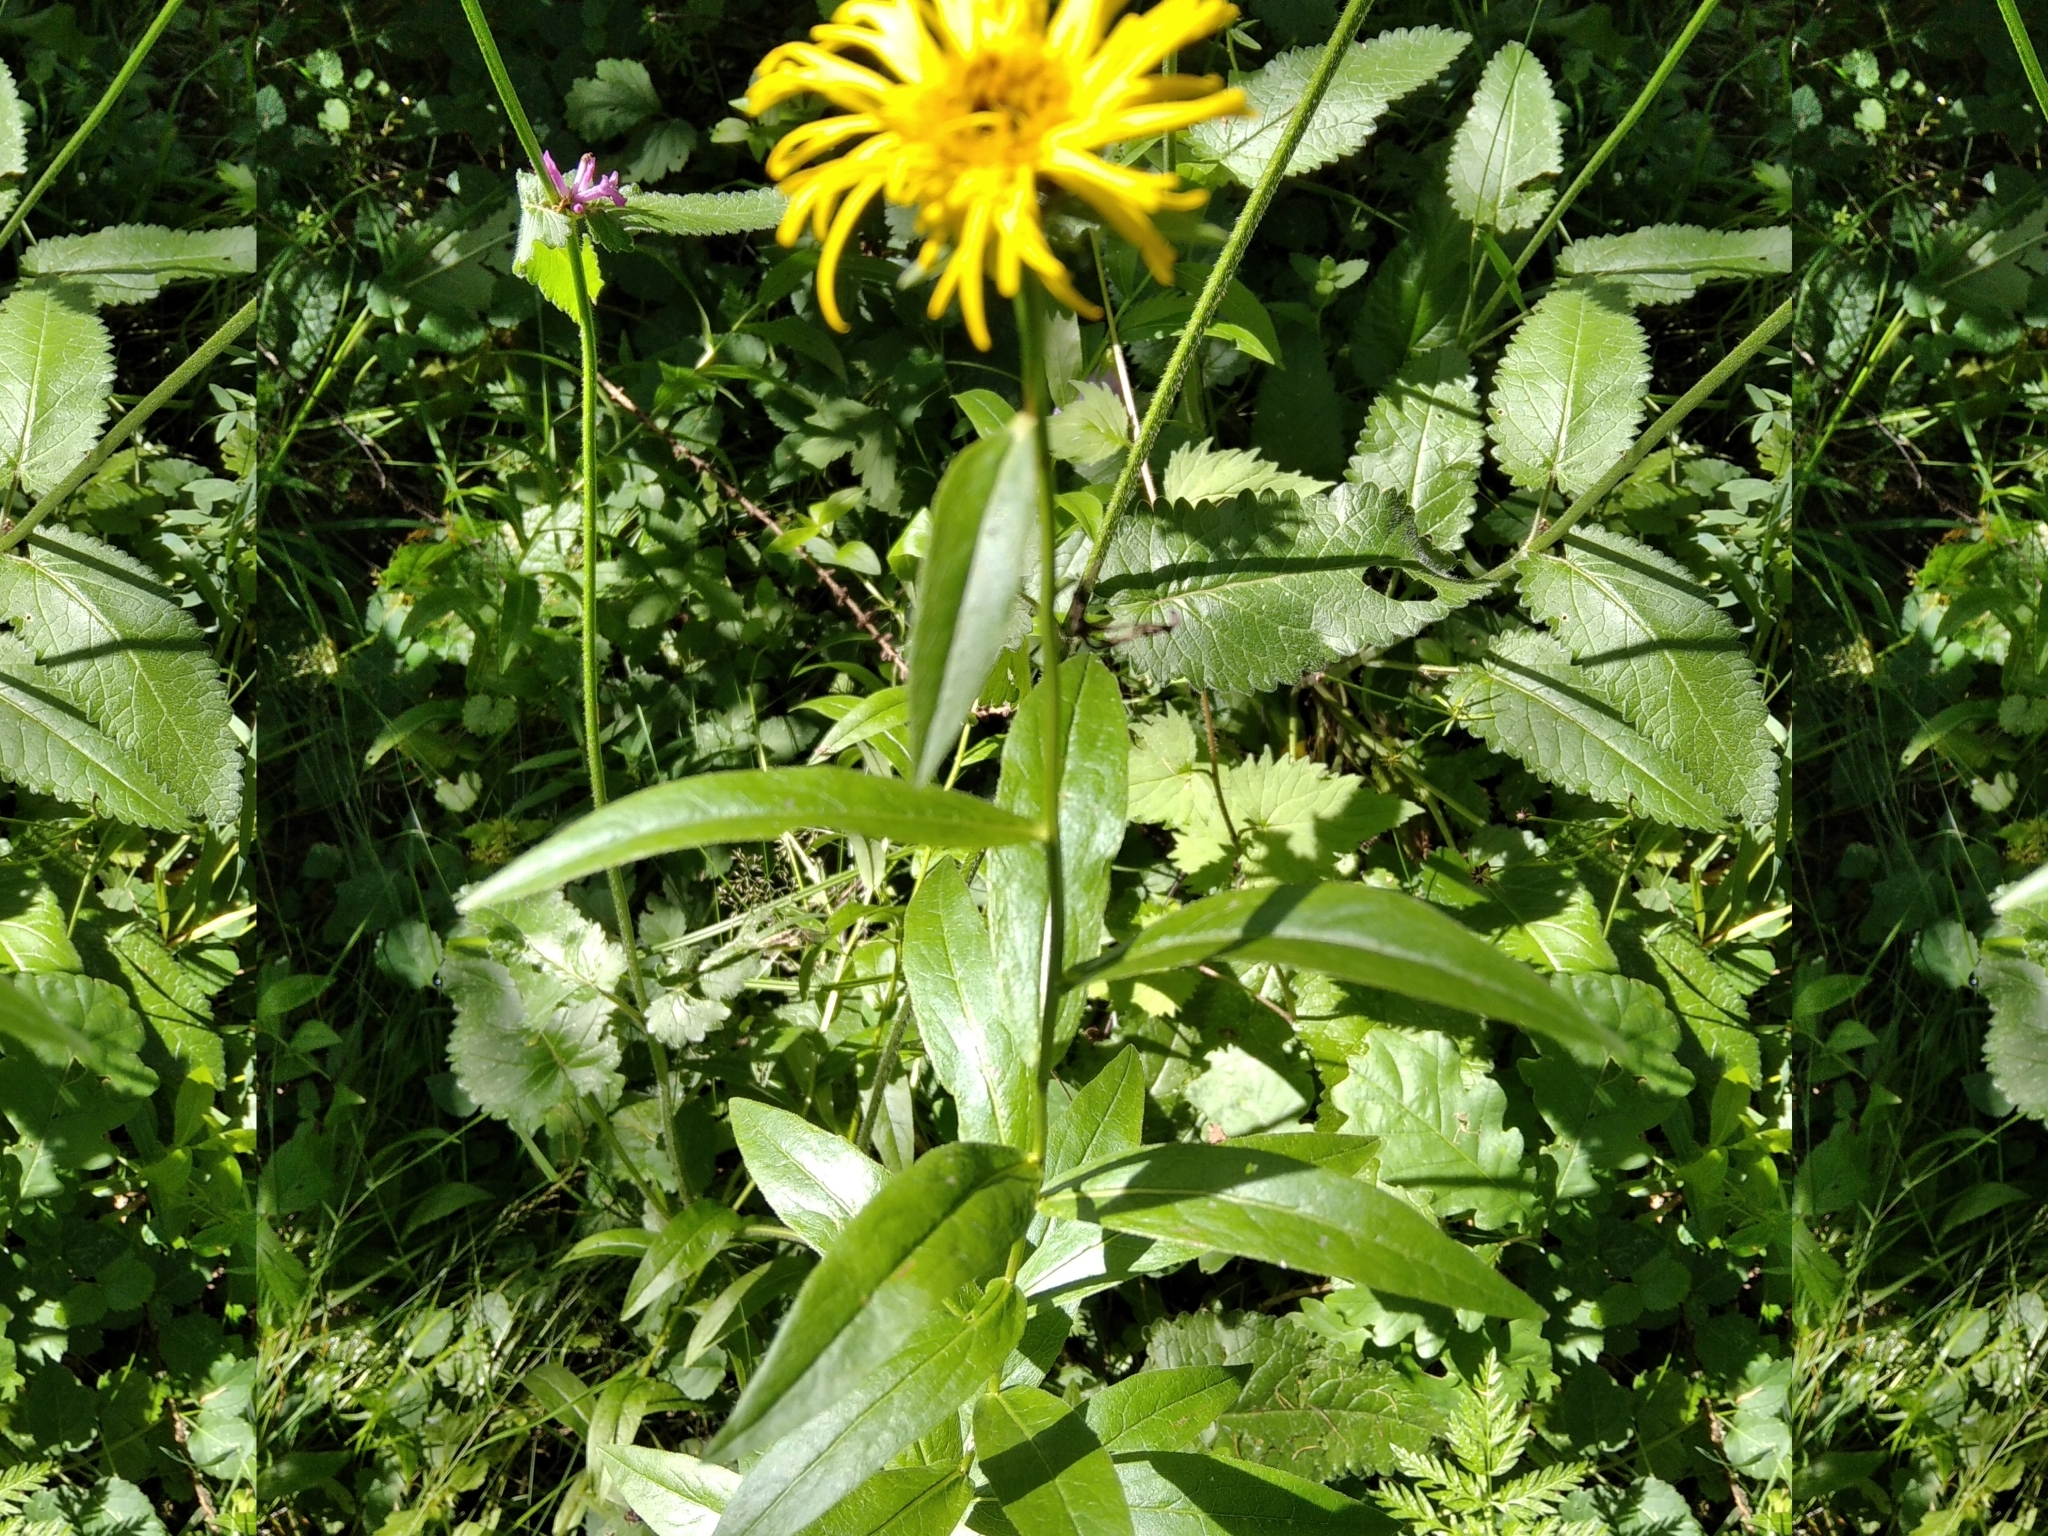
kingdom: Plantae
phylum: Tracheophyta
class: Magnoliopsida
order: Asterales
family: Asteraceae
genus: Pentanema
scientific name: Pentanema salicinum
